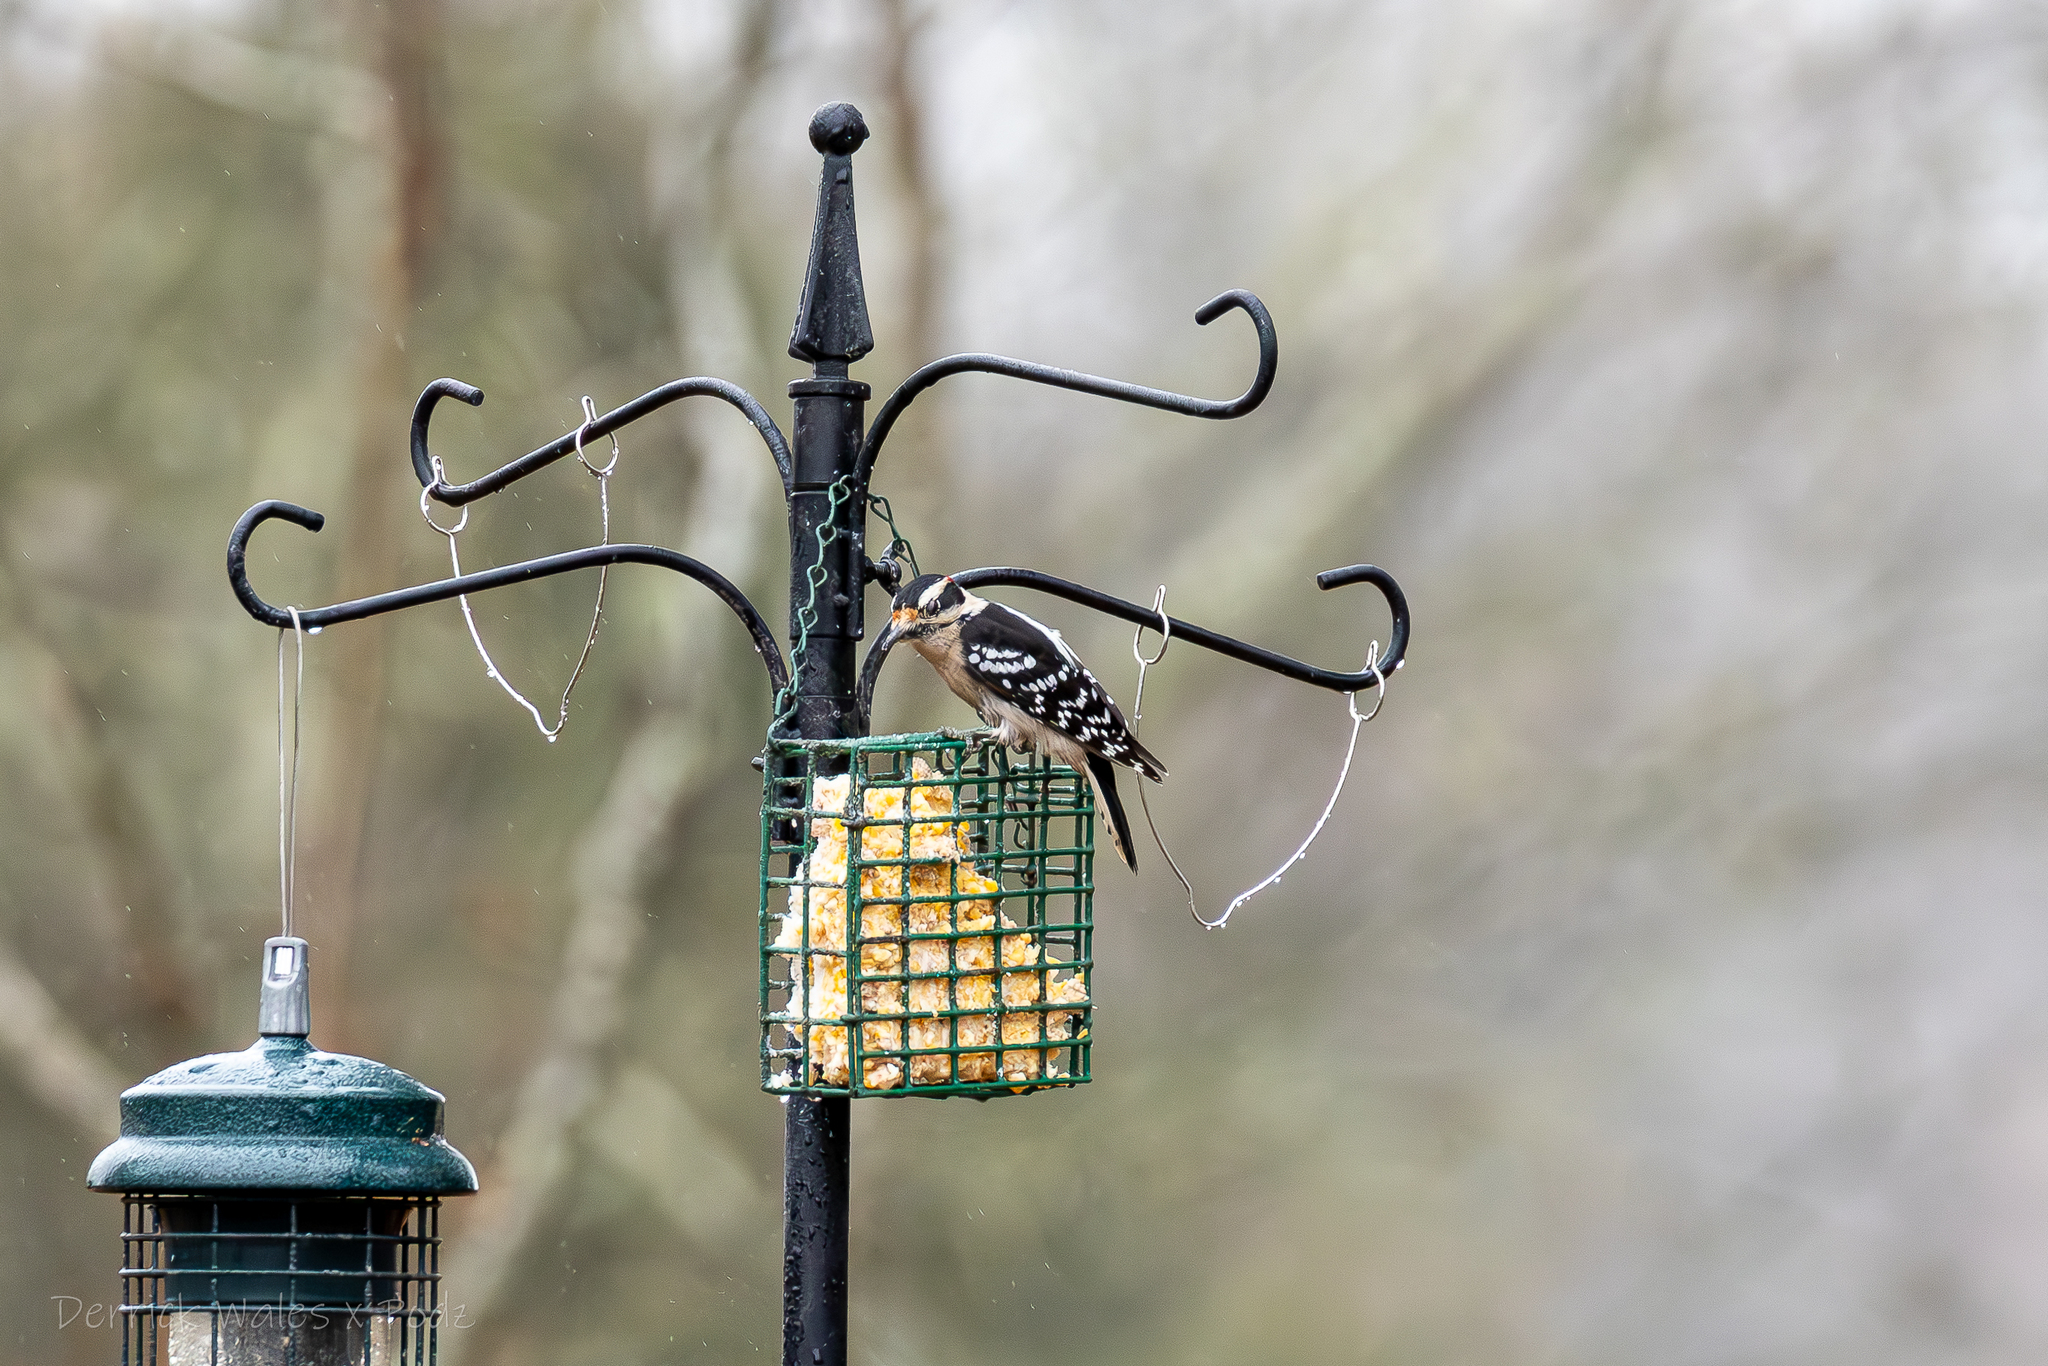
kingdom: Animalia
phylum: Chordata
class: Aves
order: Piciformes
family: Picidae
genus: Dryobates
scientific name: Dryobates pubescens
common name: Downy woodpecker
